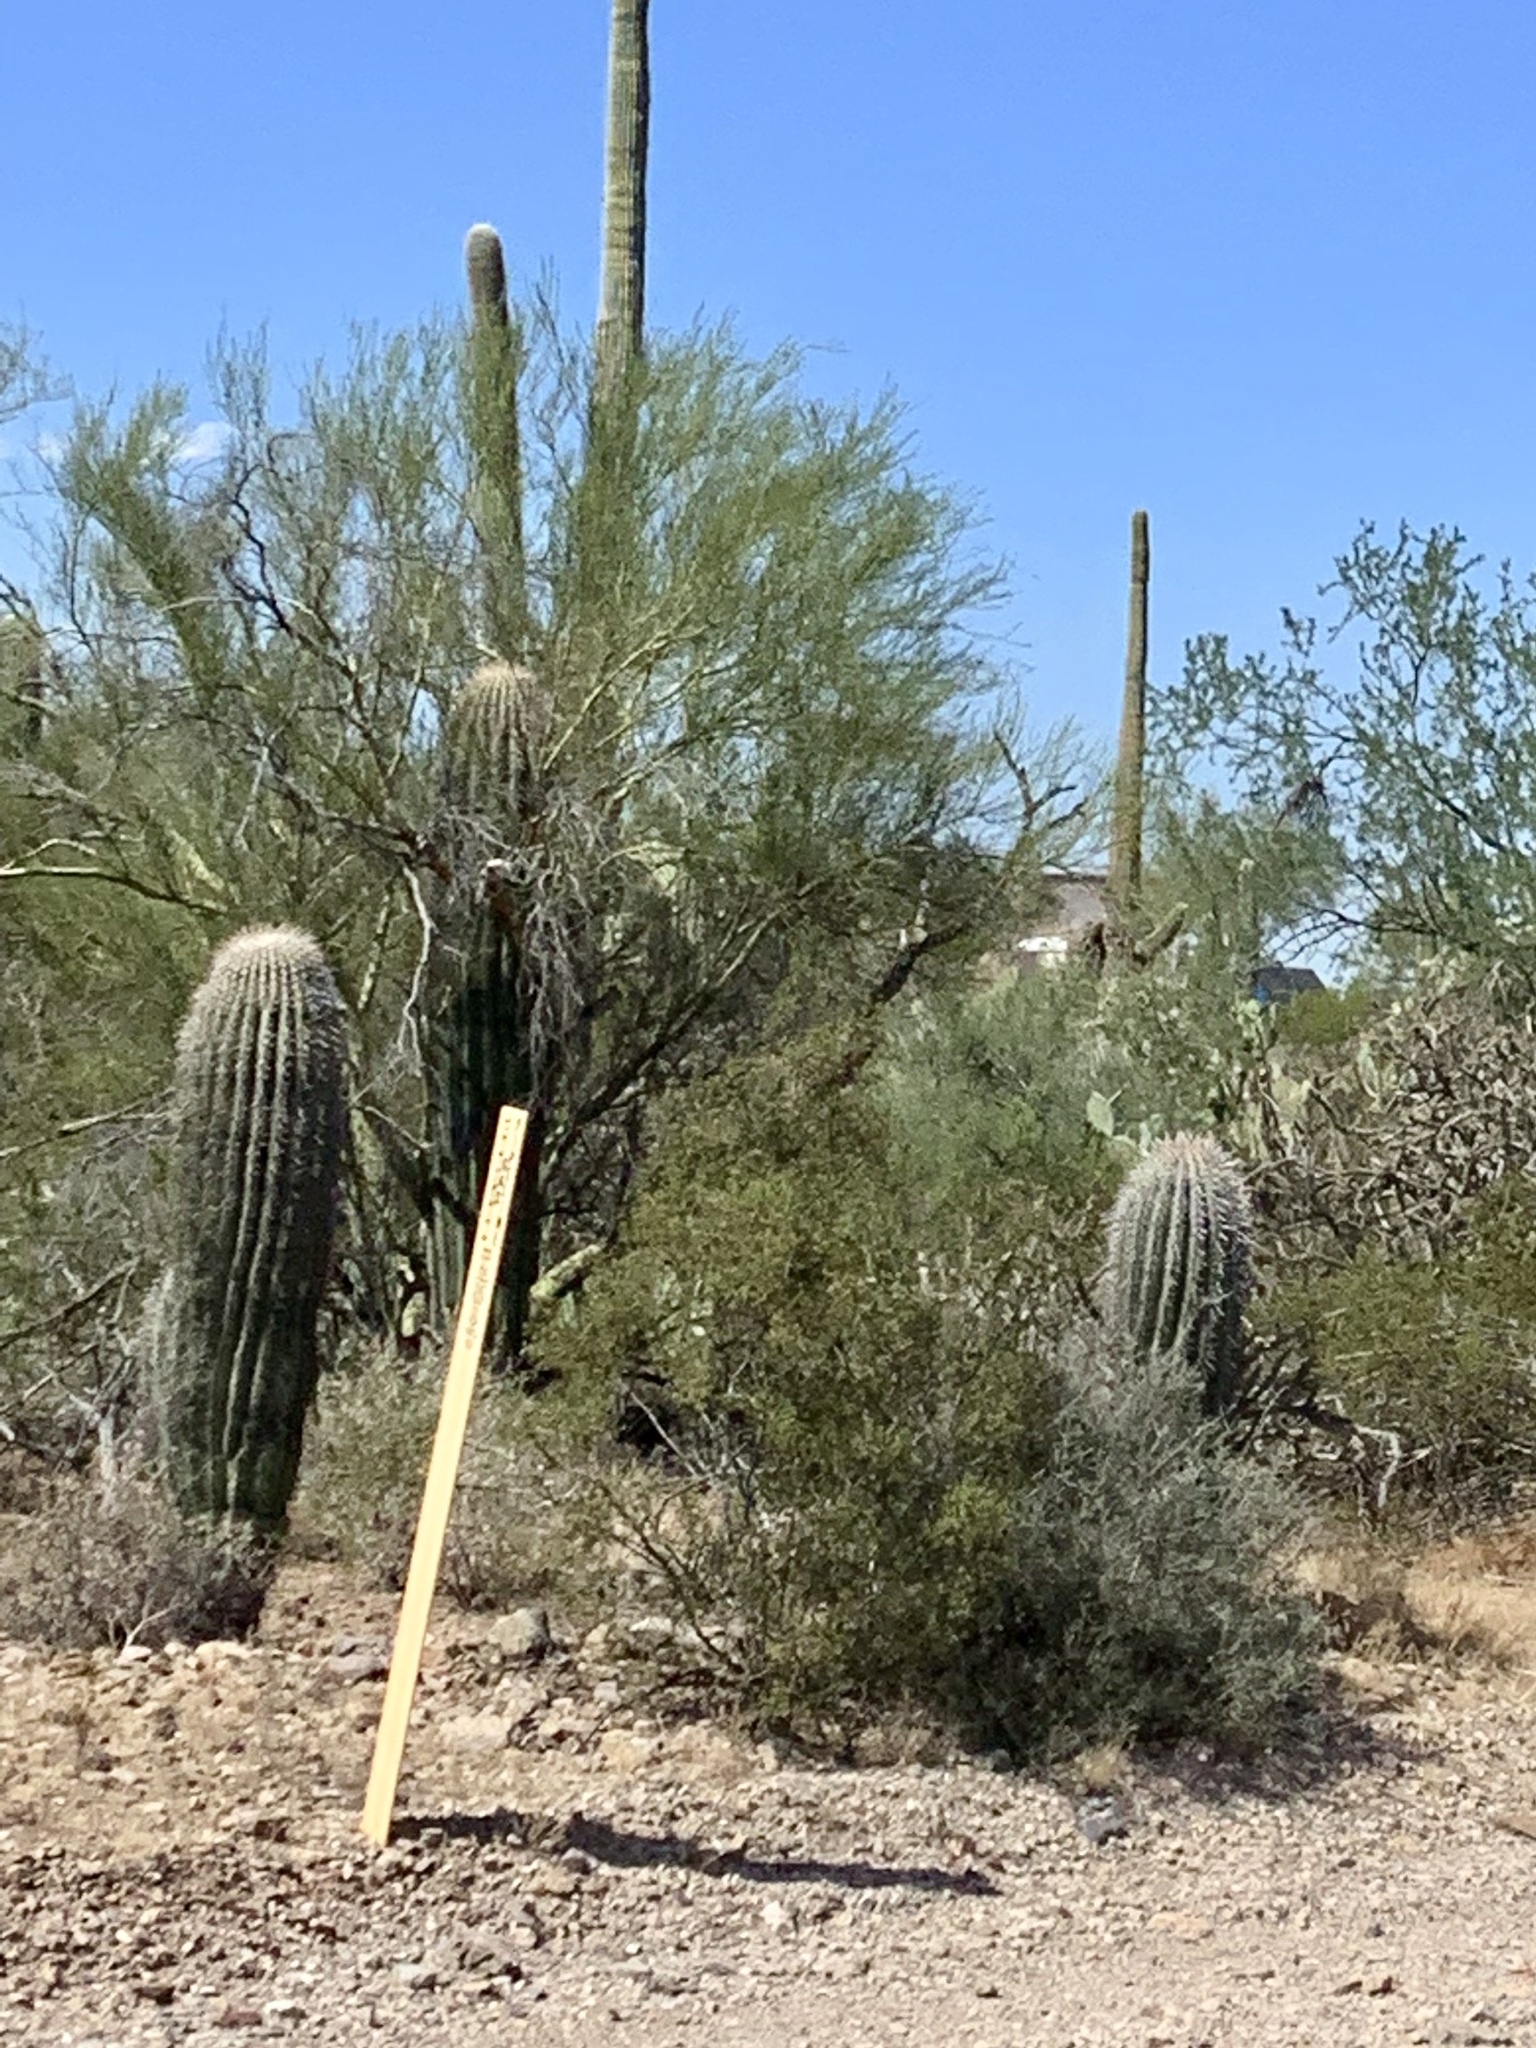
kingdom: Plantae
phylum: Tracheophyta
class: Magnoliopsida
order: Caryophyllales
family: Cactaceae
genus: Carnegiea
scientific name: Carnegiea gigantea
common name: Saguaro
